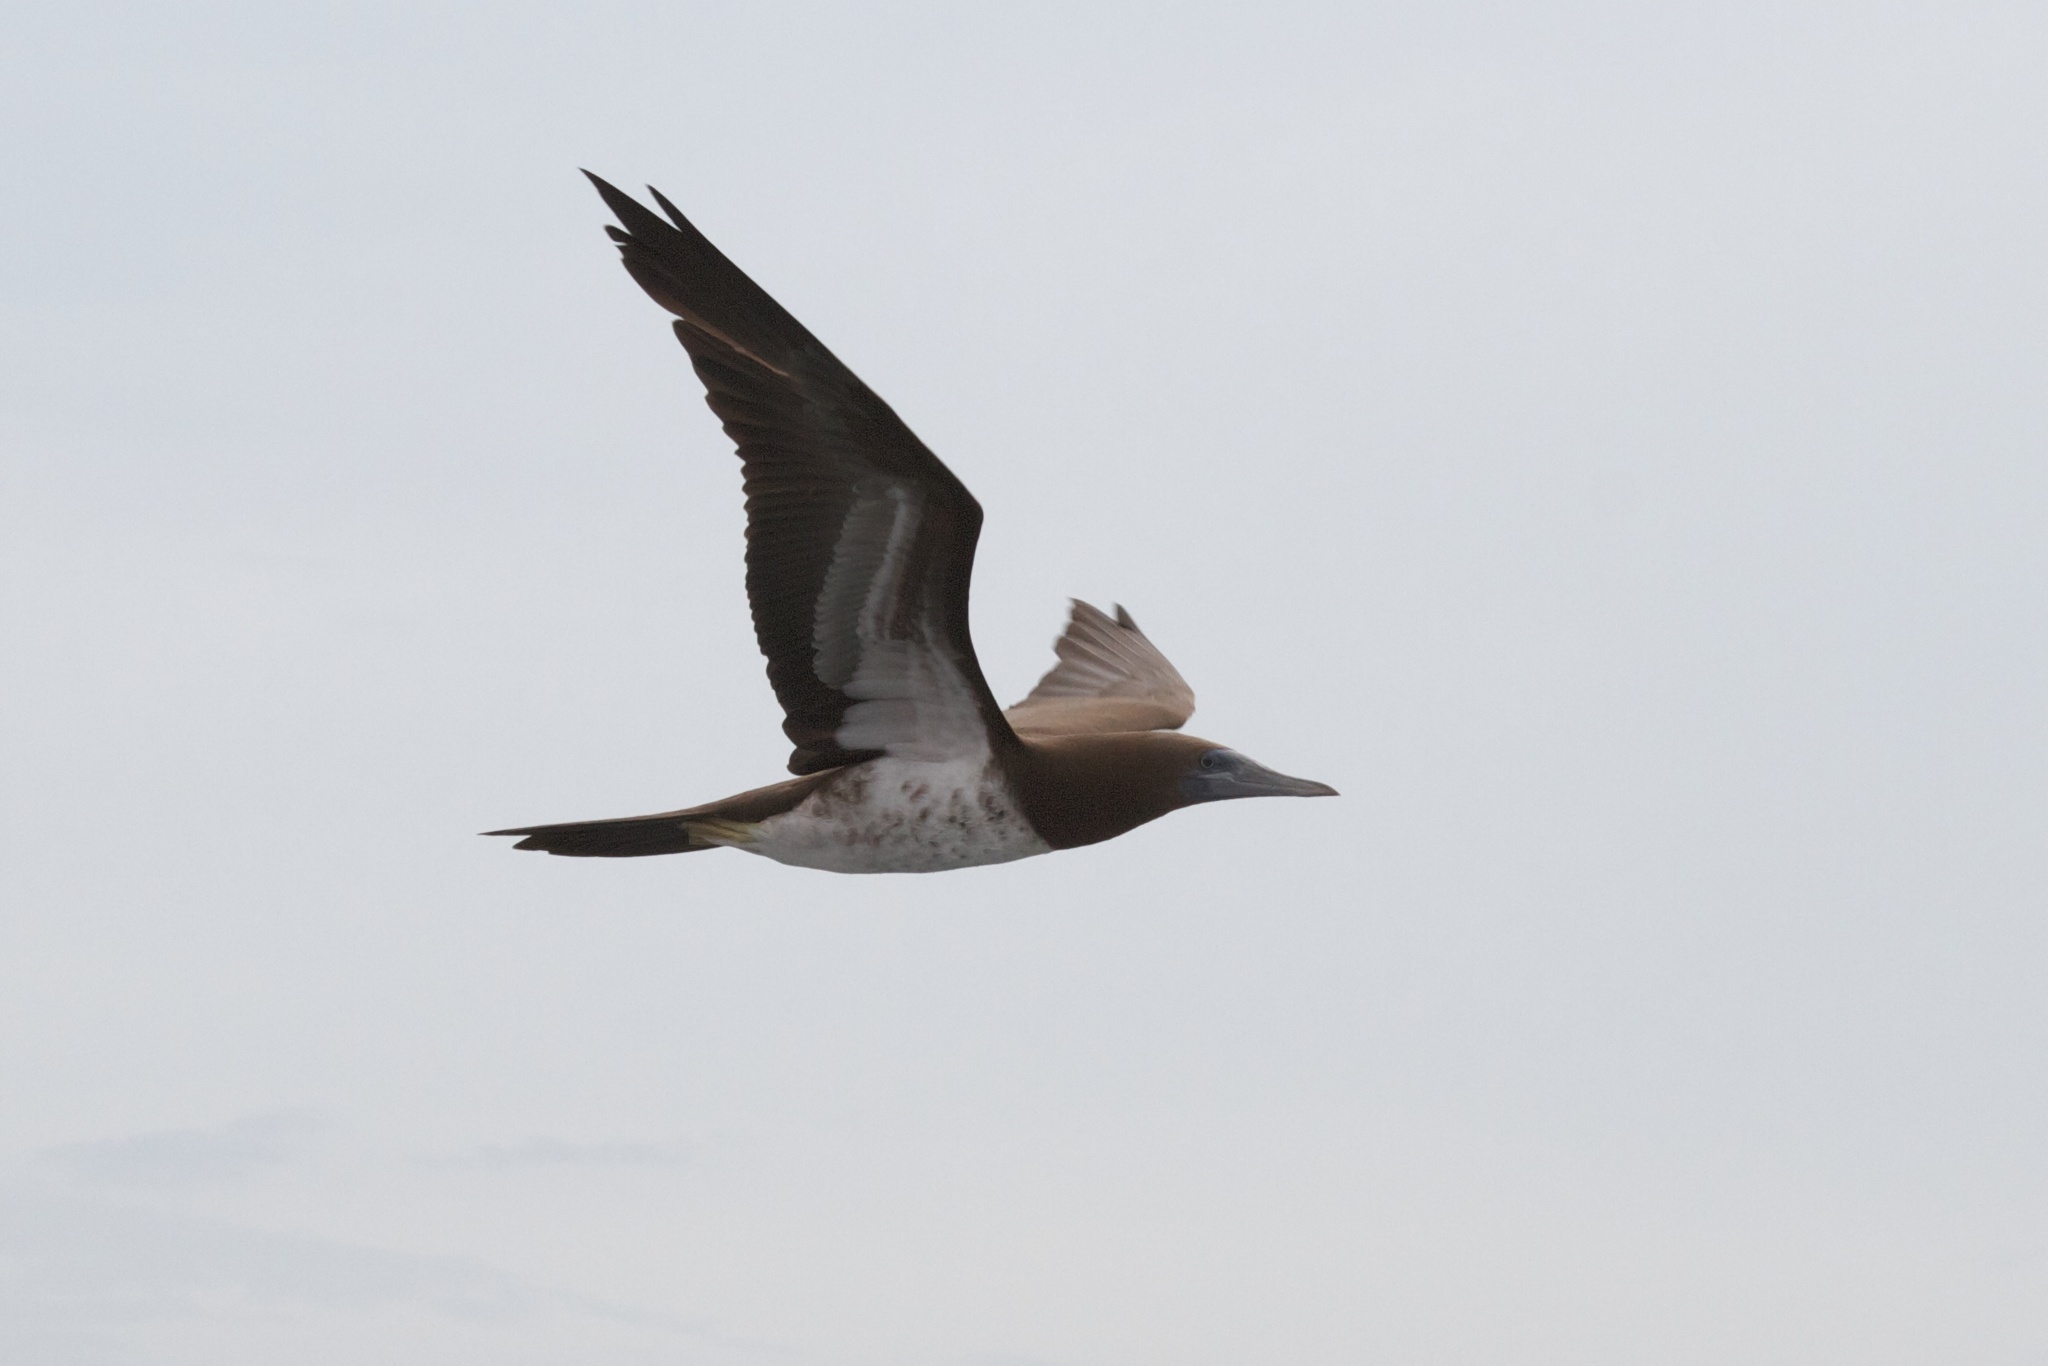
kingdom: Animalia
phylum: Chordata
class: Aves
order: Suliformes
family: Sulidae
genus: Sula
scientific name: Sula leucogaster
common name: Brown booby
